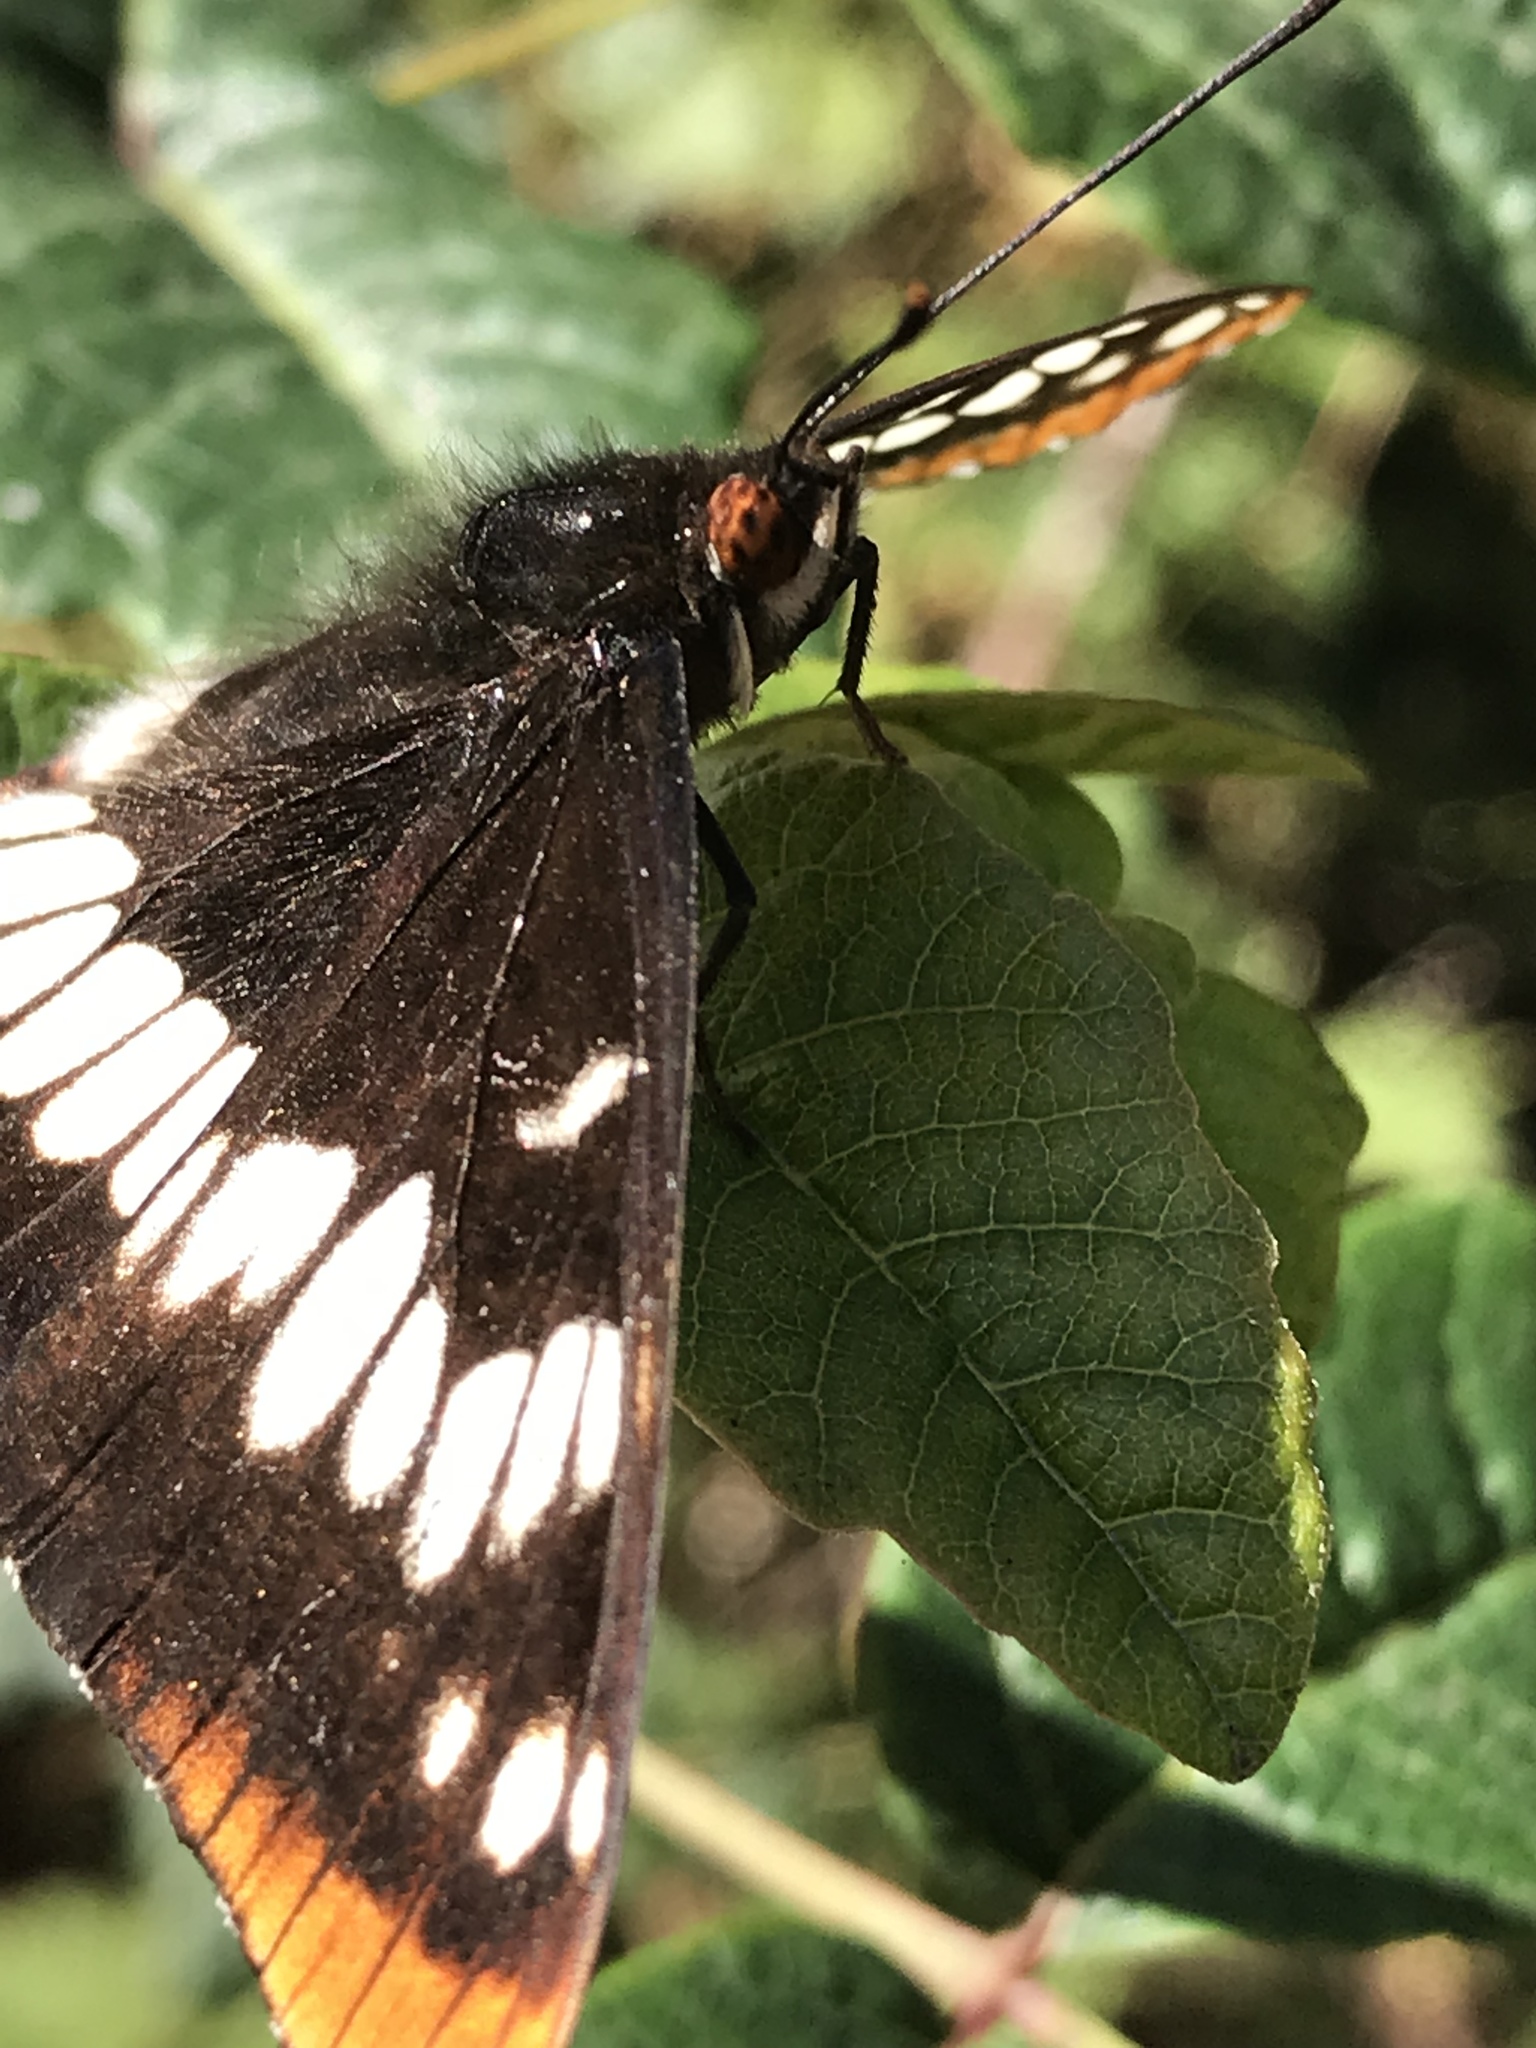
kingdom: Animalia
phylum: Arthropoda
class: Insecta
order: Lepidoptera
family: Nymphalidae
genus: Limenitis
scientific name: Limenitis lorquini
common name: Lorquin's admiral
